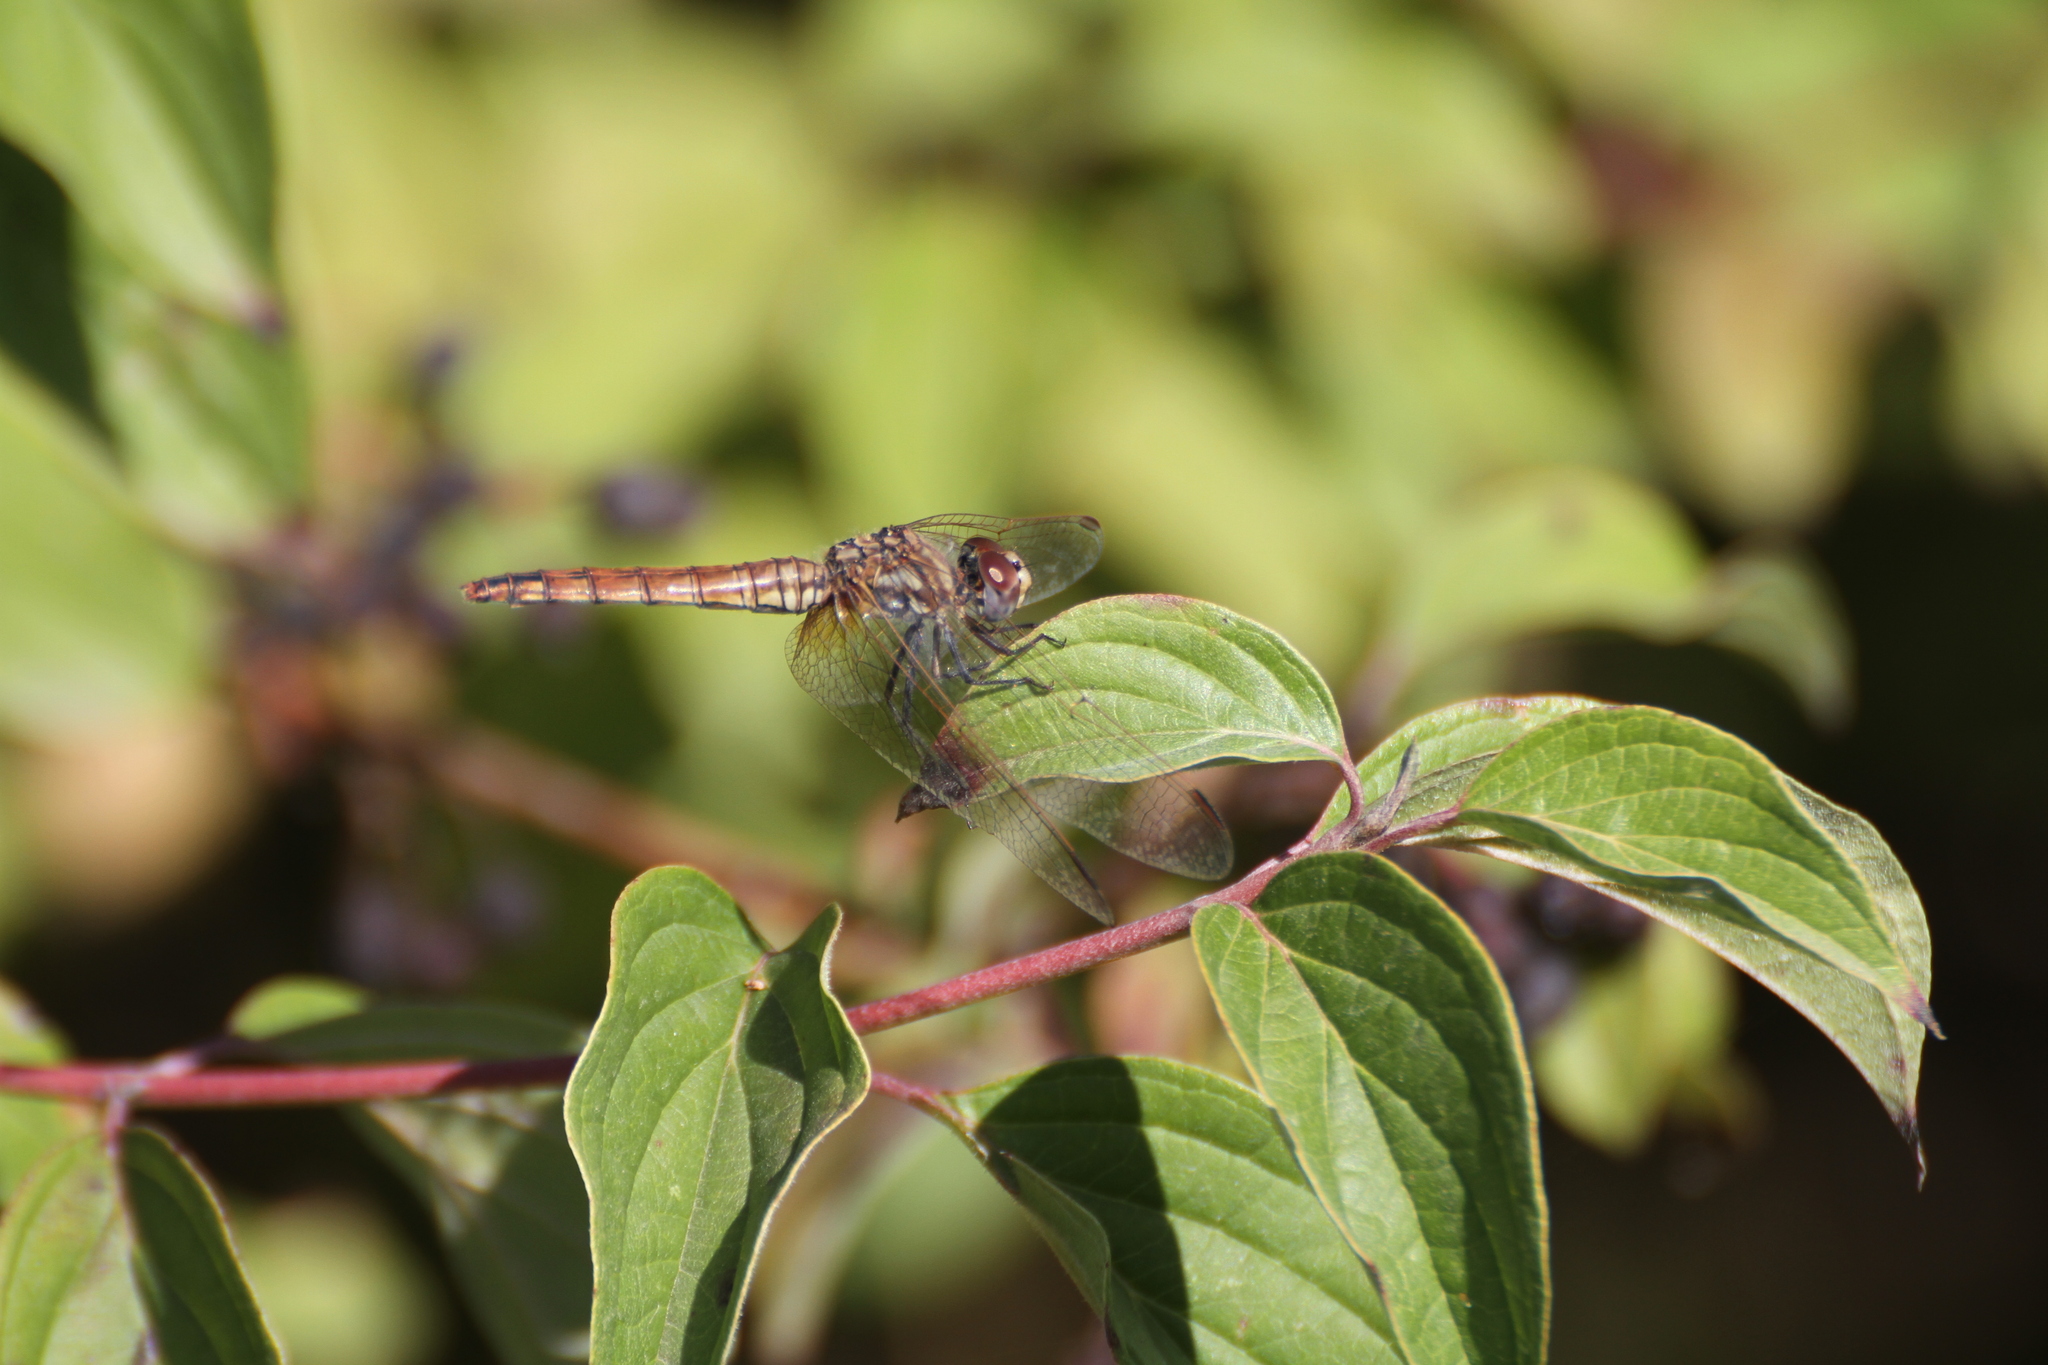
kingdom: Animalia
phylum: Arthropoda
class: Insecta
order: Odonata
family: Libellulidae
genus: Trithemis
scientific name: Trithemis annulata
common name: Violet dropwing
